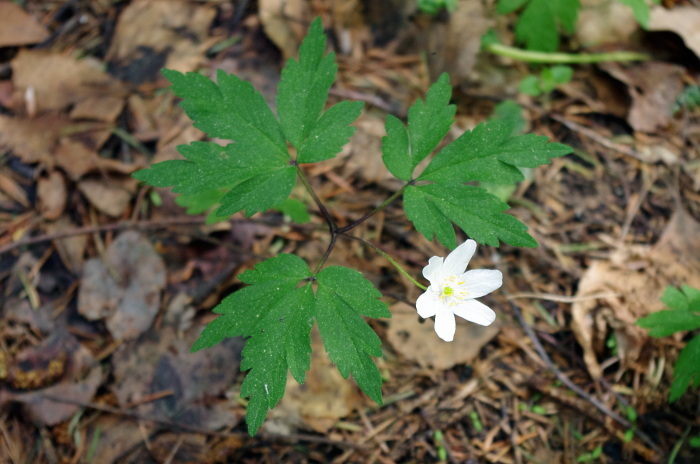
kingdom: Plantae
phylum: Tracheophyta
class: Magnoliopsida
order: Ranunculales
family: Ranunculaceae
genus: Anemone
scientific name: Anemone nemorosa
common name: Wood anemone
